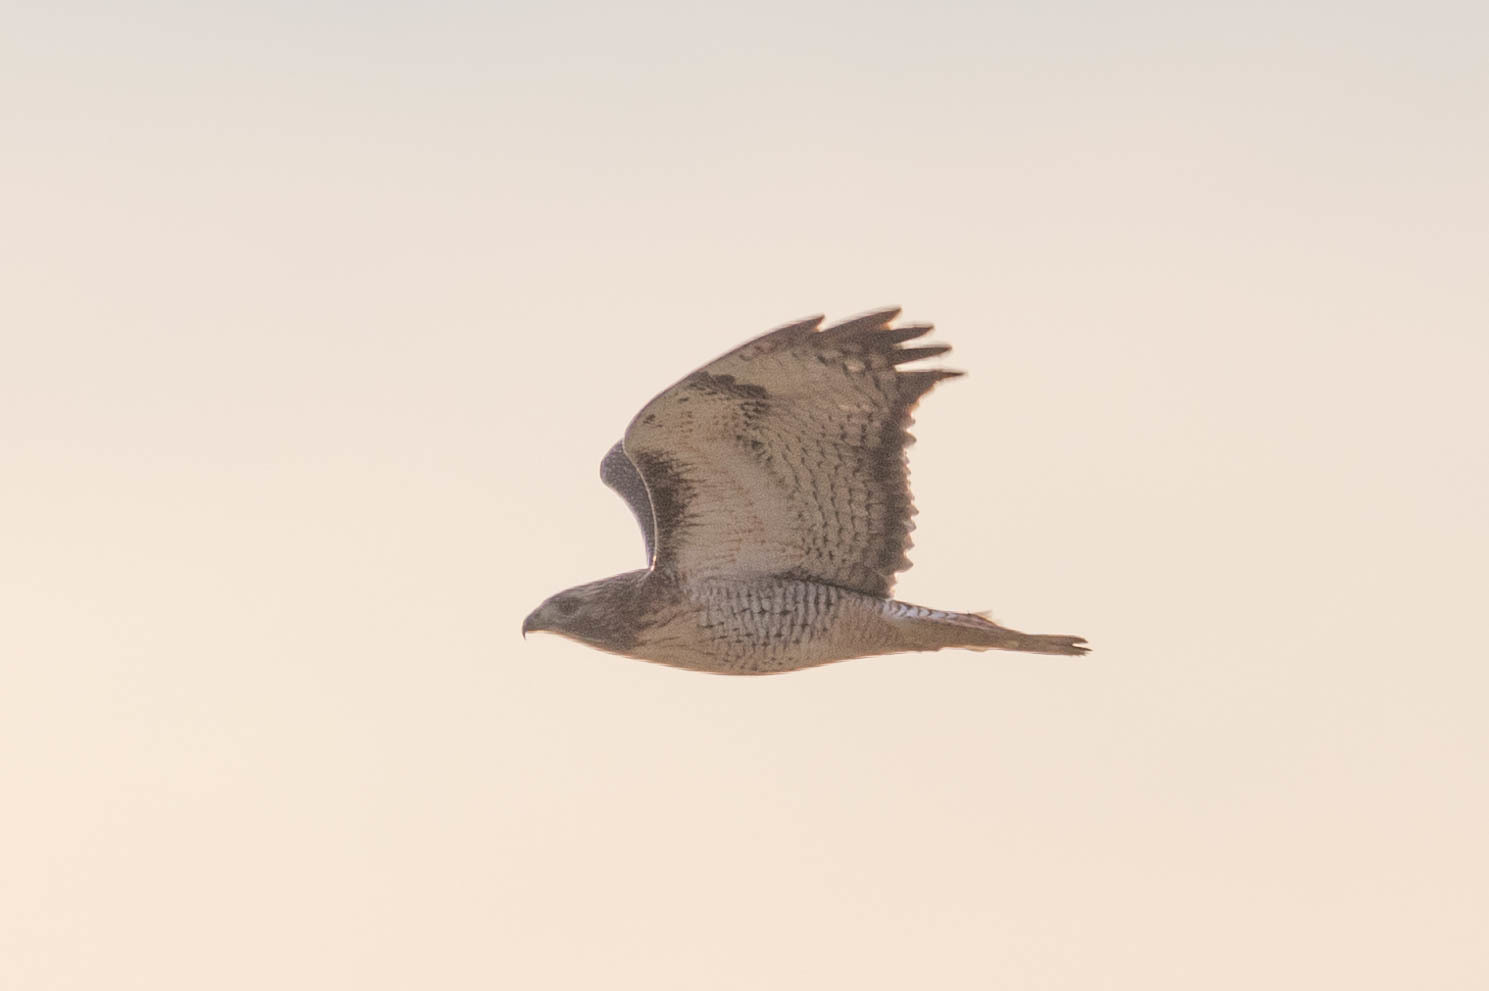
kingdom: Animalia
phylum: Chordata
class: Aves
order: Accipitriformes
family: Accipitridae
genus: Buteo
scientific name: Buteo jamaicensis
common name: Red-tailed hawk
